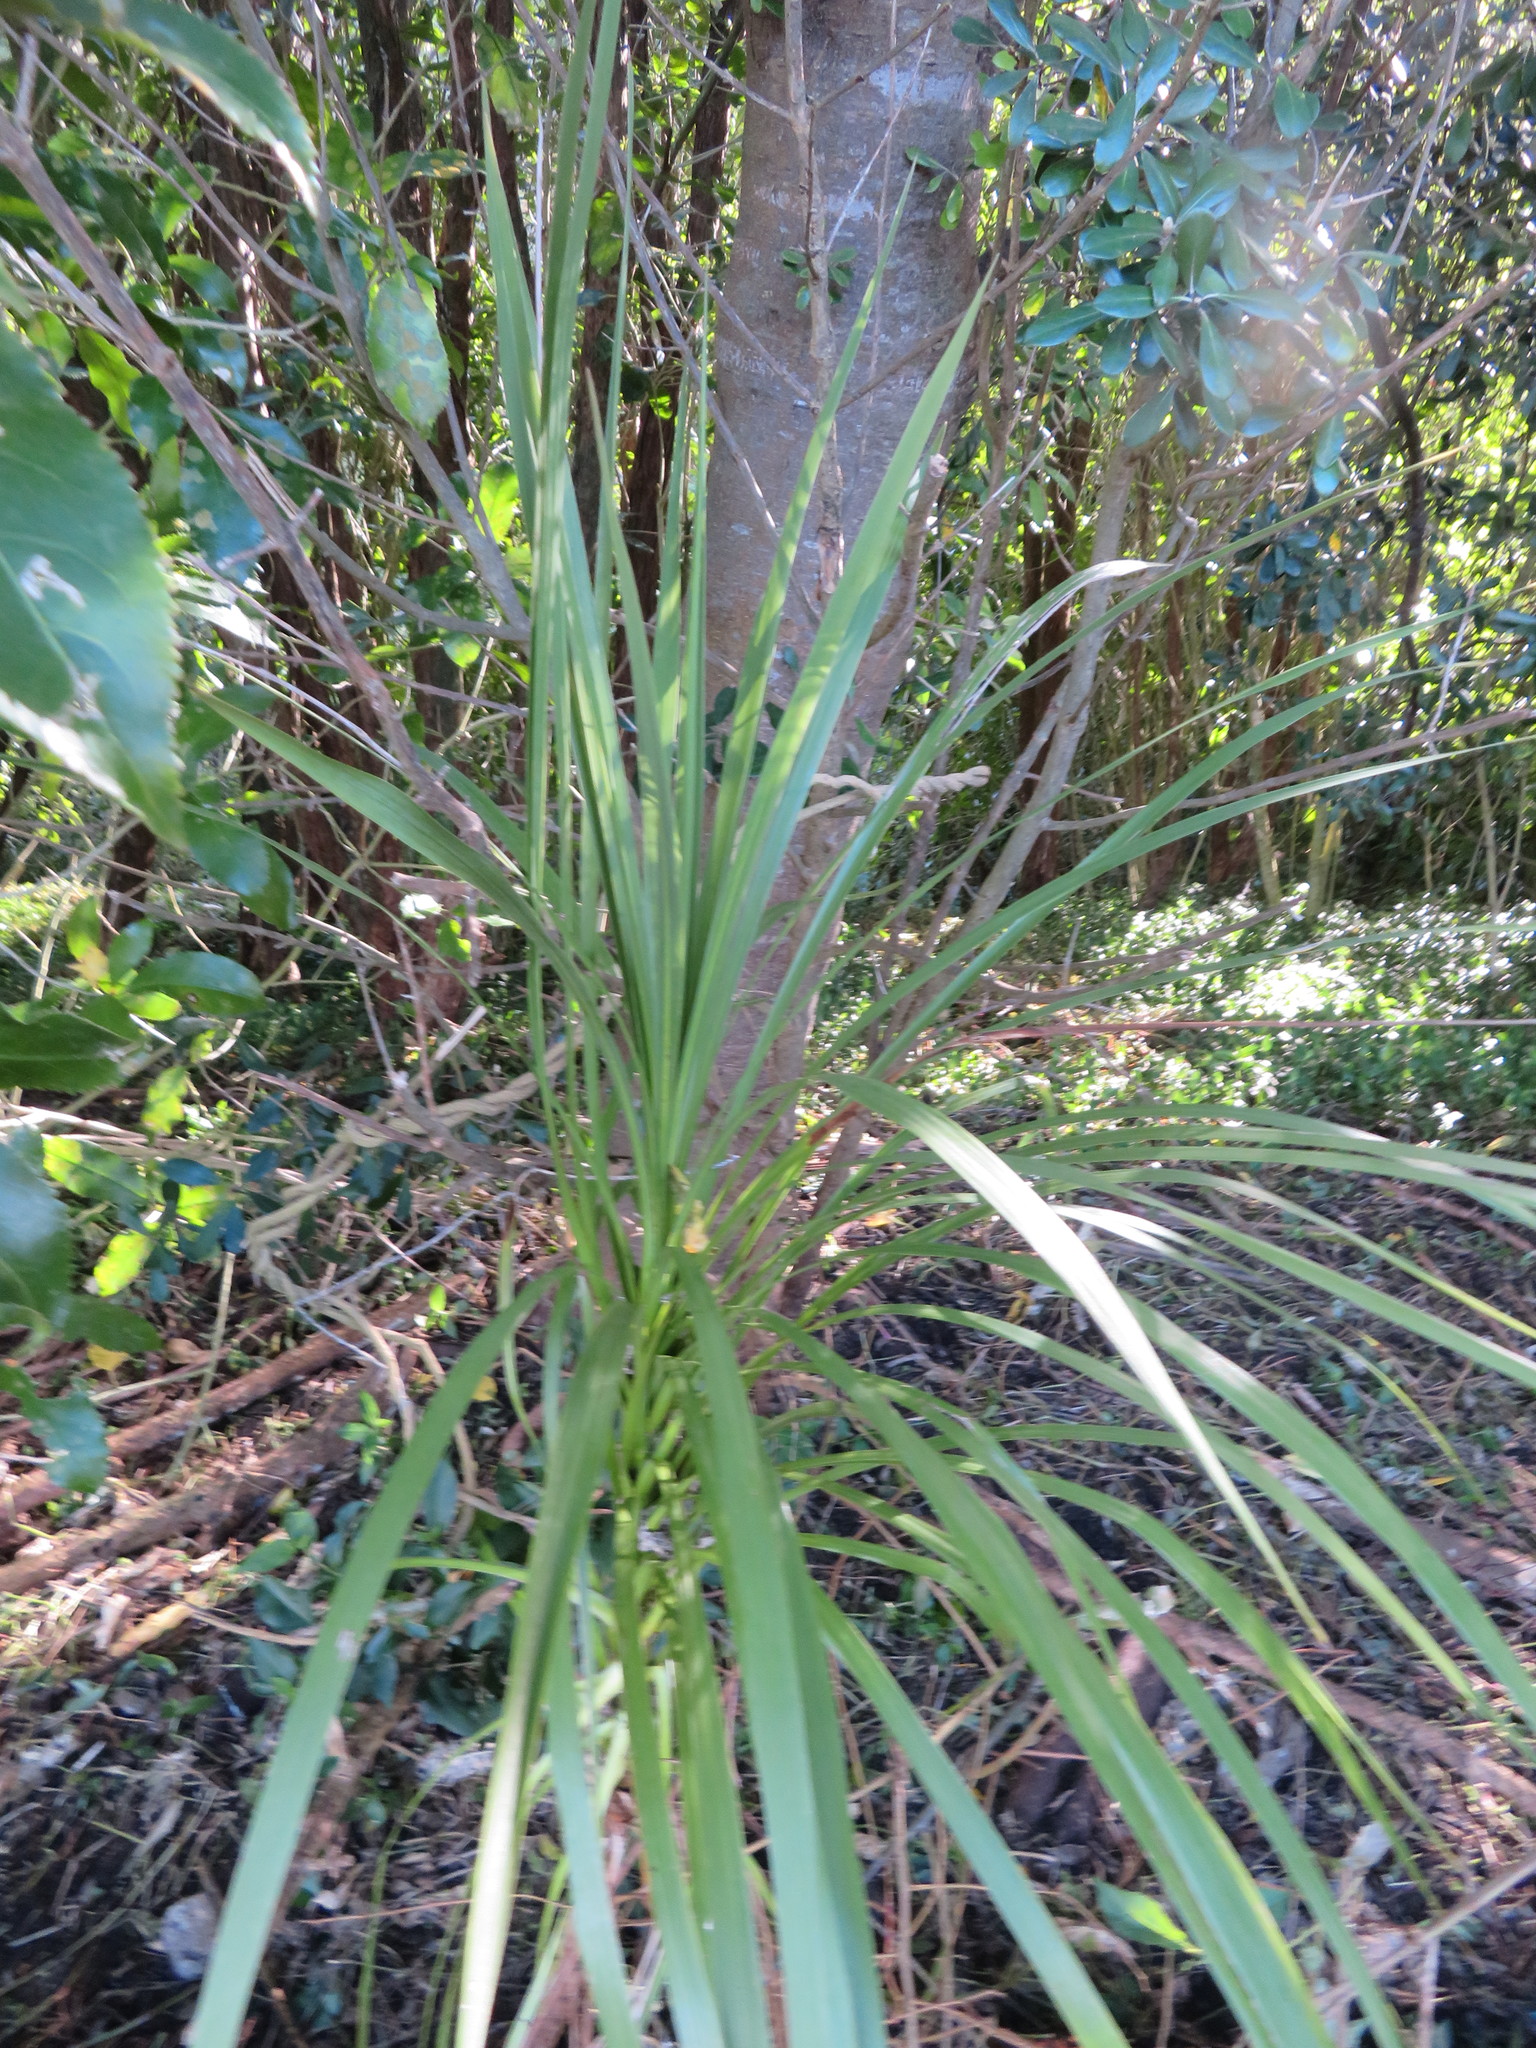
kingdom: Plantae
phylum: Tracheophyta
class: Liliopsida
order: Asparagales
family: Asparagaceae
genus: Cordyline
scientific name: Cordyline australis
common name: Cabbage-palm
